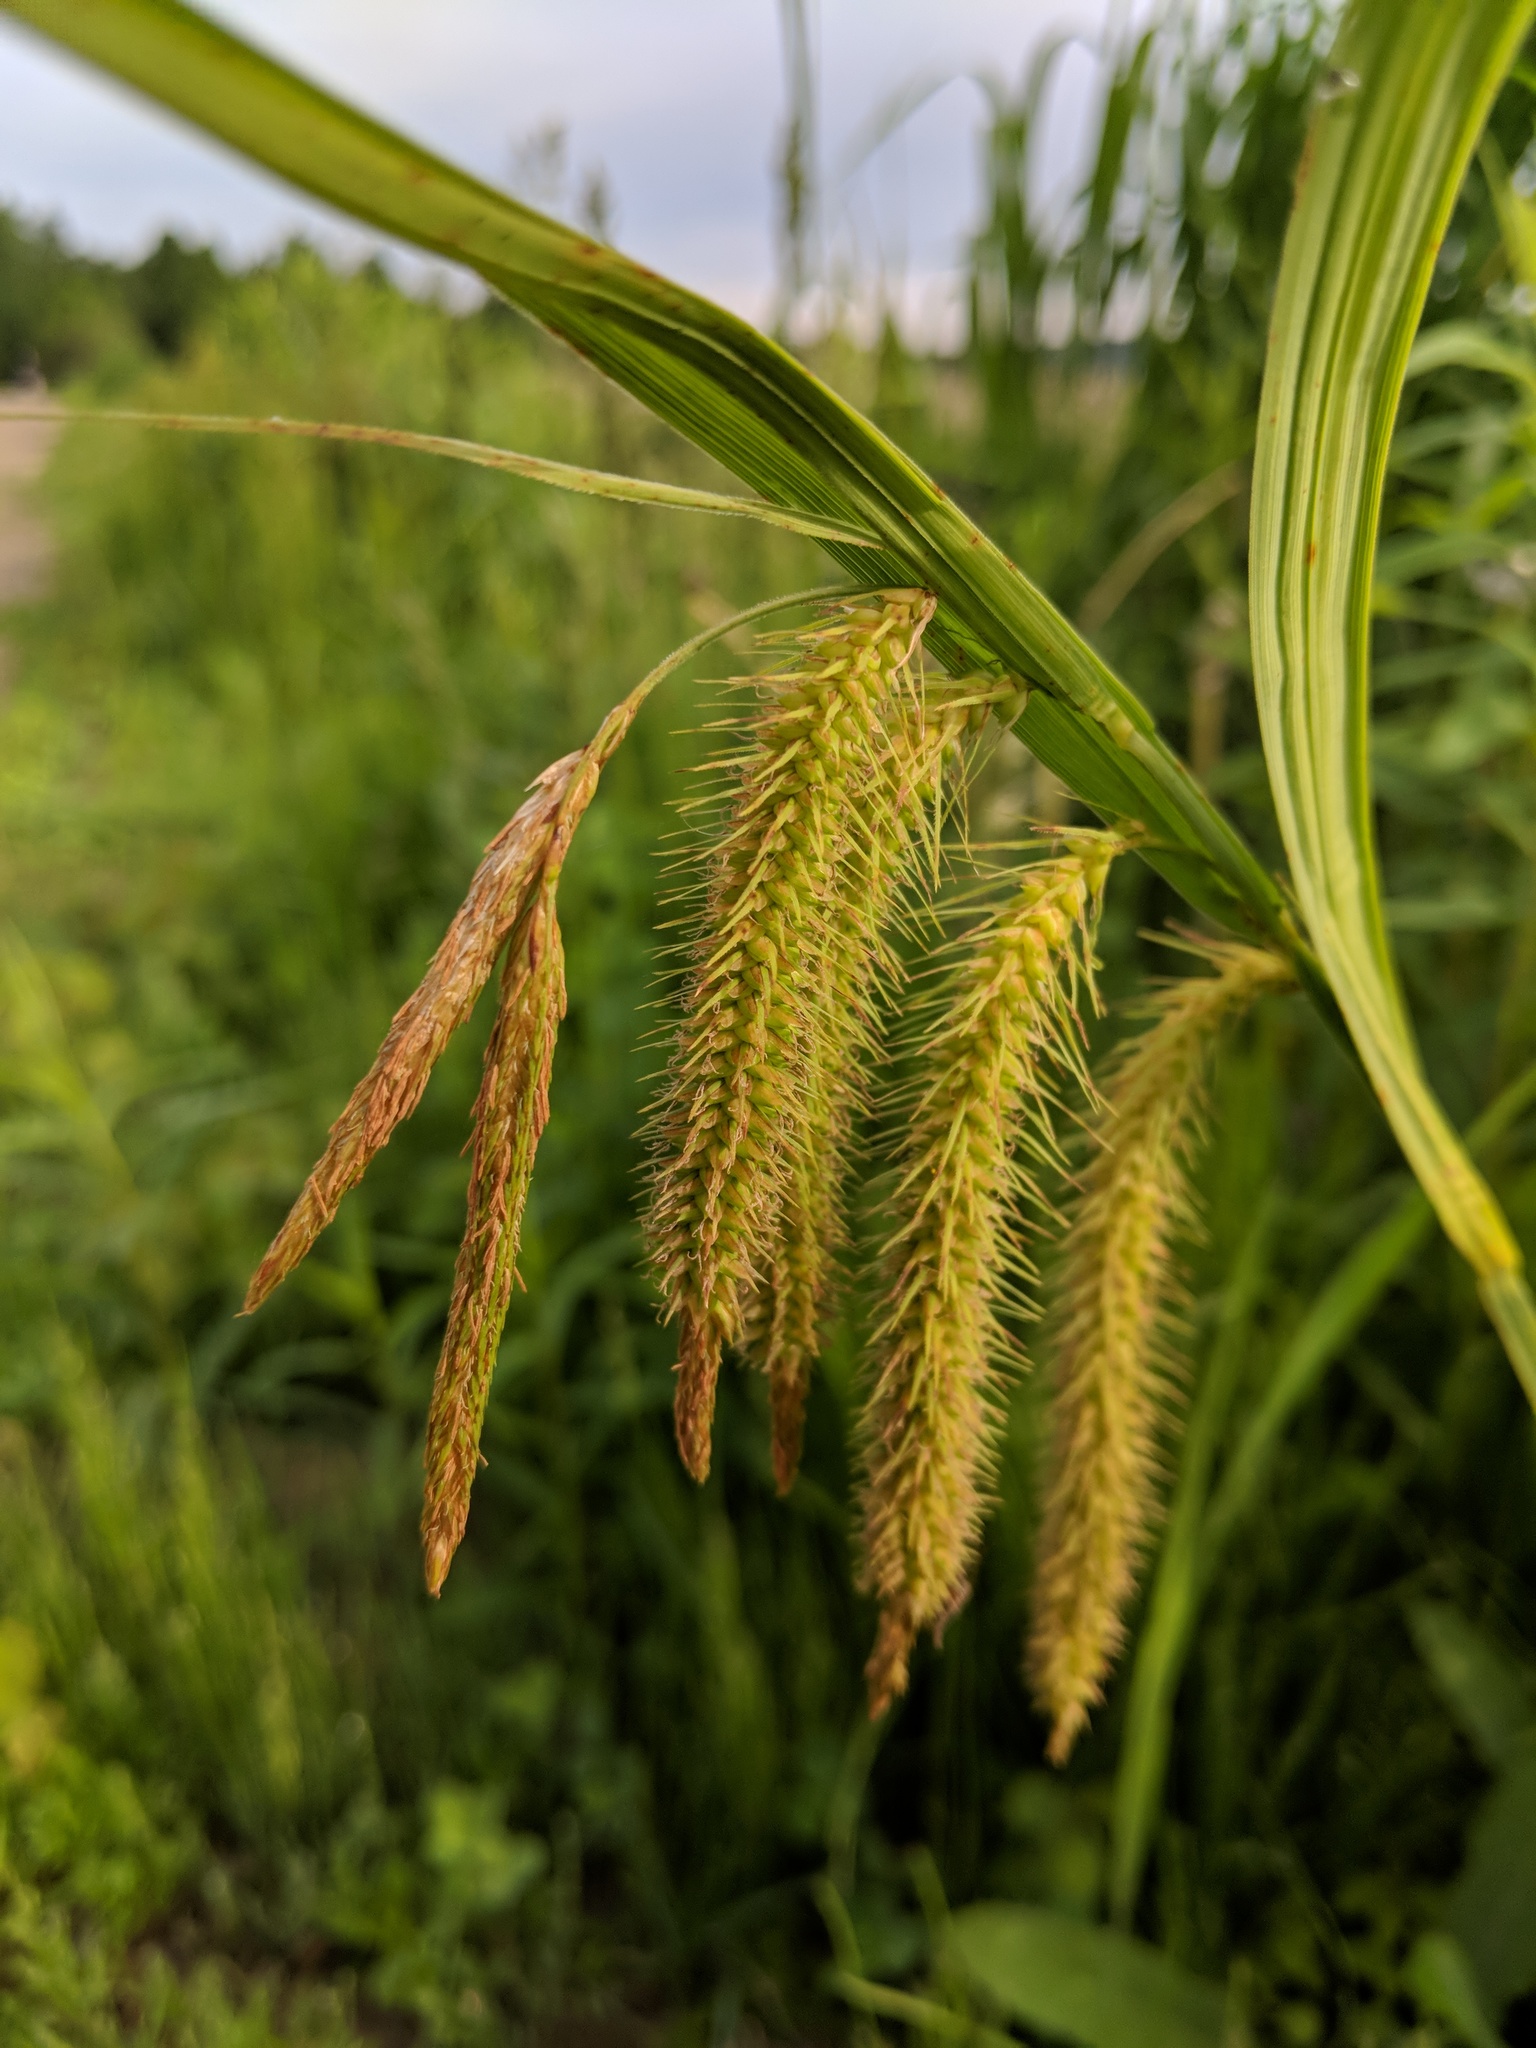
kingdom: Plantae
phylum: Tracheophyta
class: Liliopsida
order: Poales
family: Cyperaceae
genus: Carex
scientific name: Carex crinita
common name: Fringed sedge
